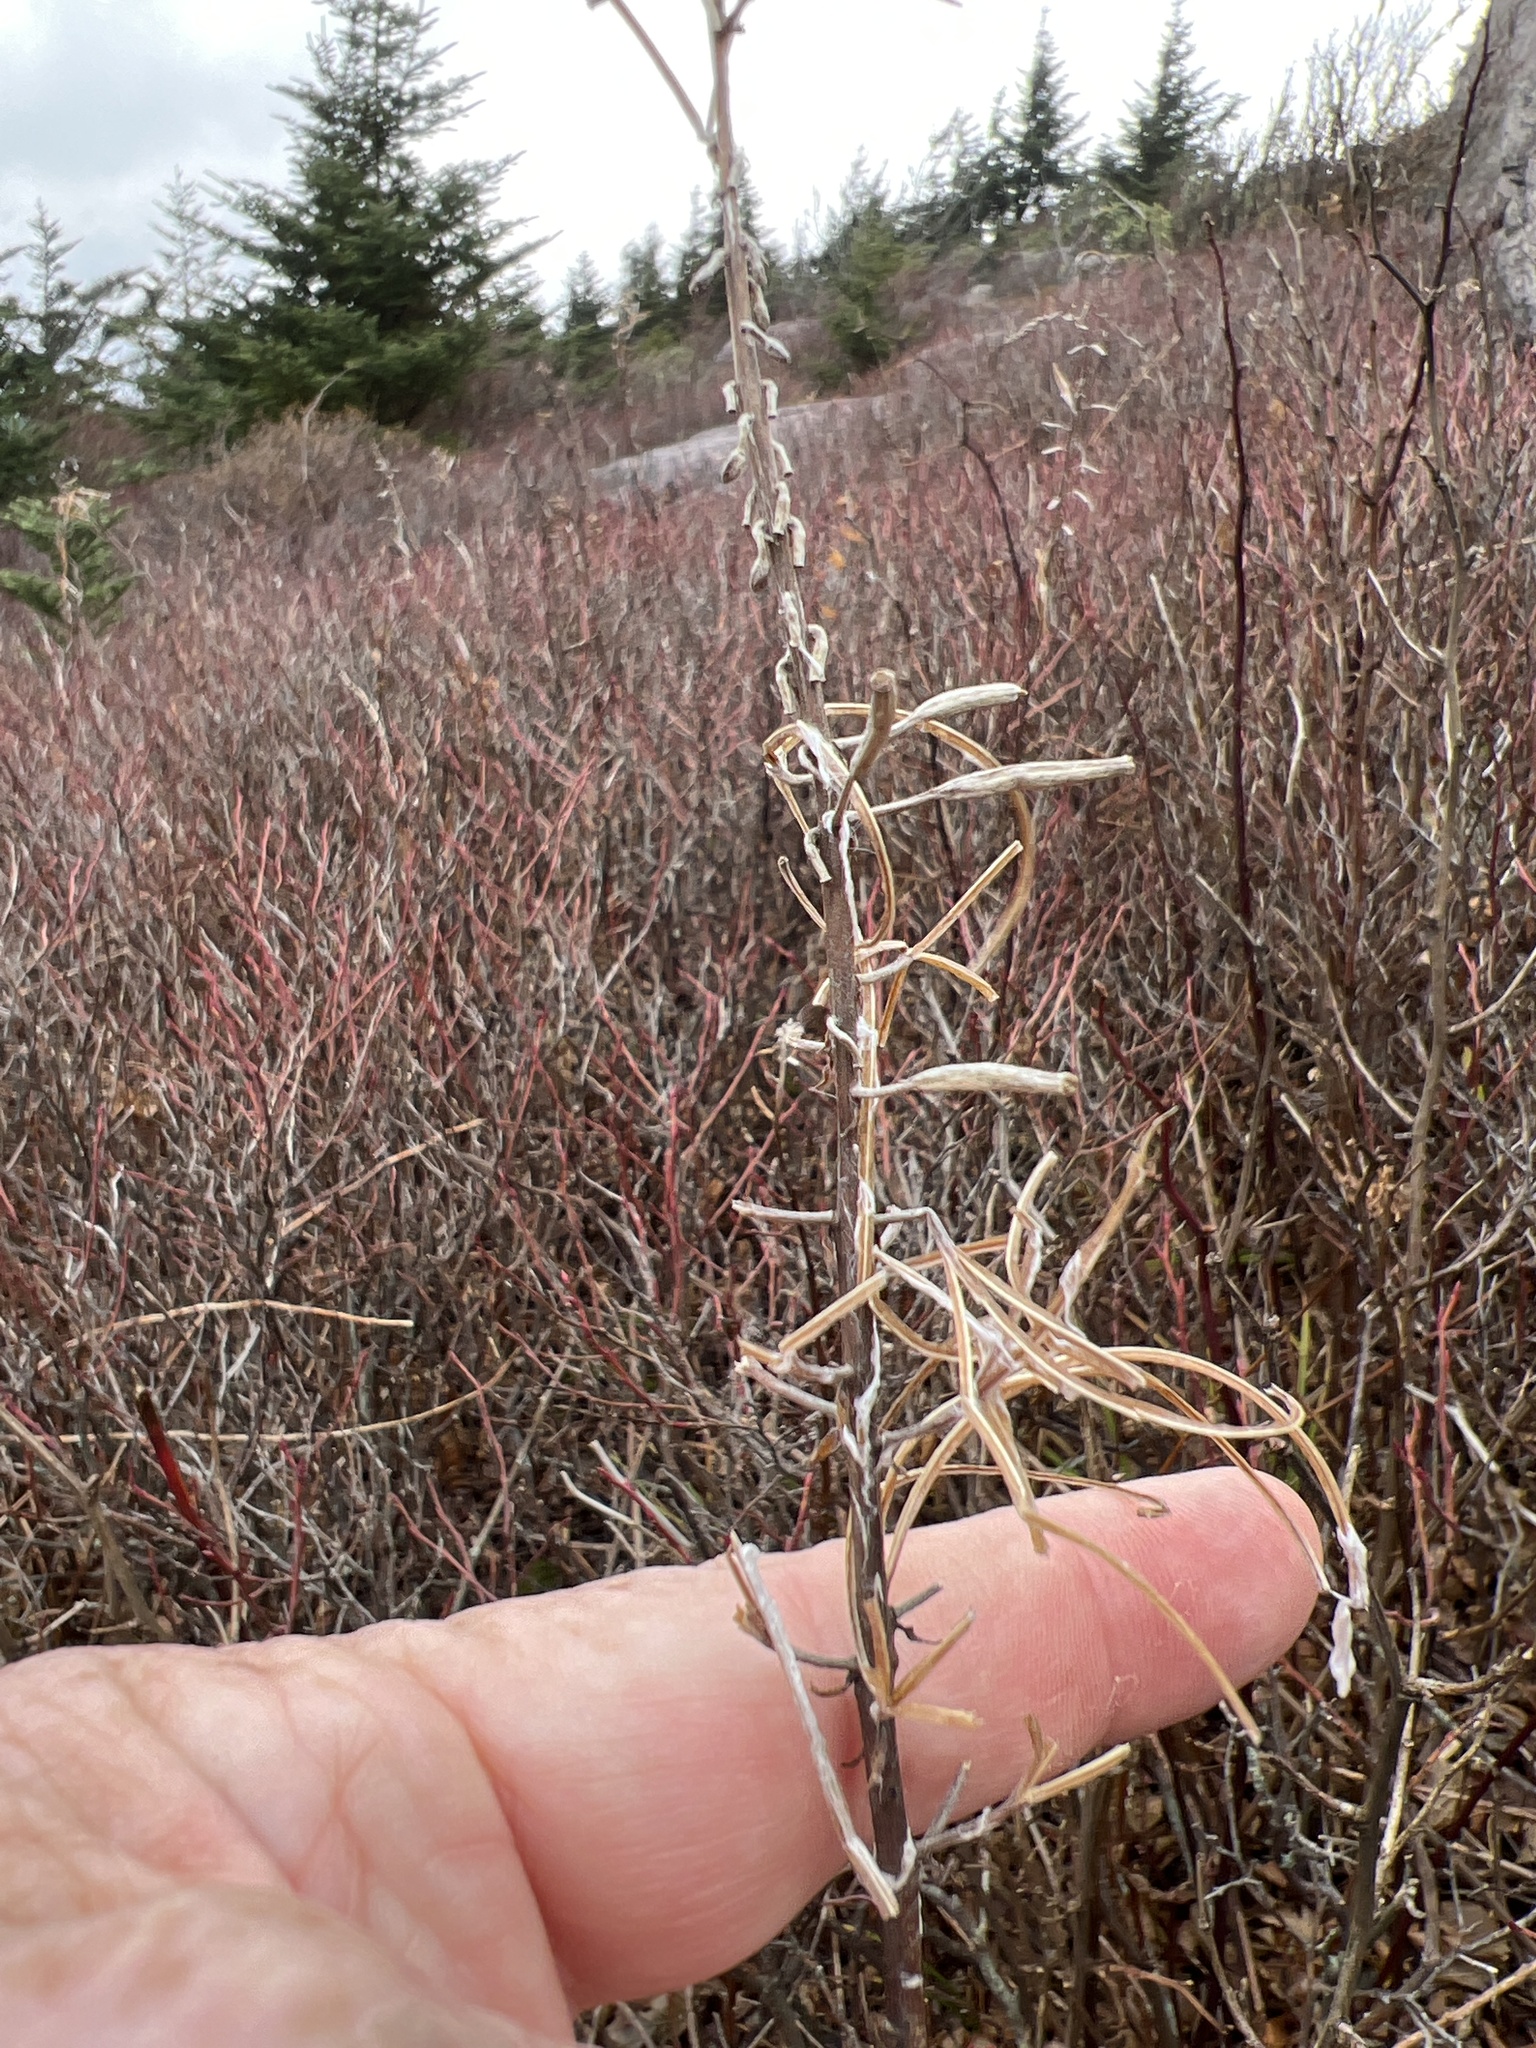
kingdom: Plantae
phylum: Tracheophyta
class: Magnoliopsida
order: Myrtales
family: Onagraceae
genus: Chamaenerion
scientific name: Chamaenerion angustifolium
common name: Fireweed
